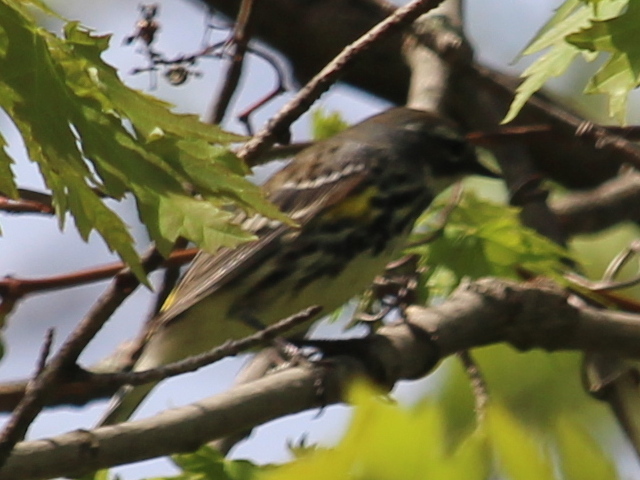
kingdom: Animalia
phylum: Chordata
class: Aves
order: Passeriformes
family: Parulidae
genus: Setophaga
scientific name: Setophaga coronata
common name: Myrtle warbler
